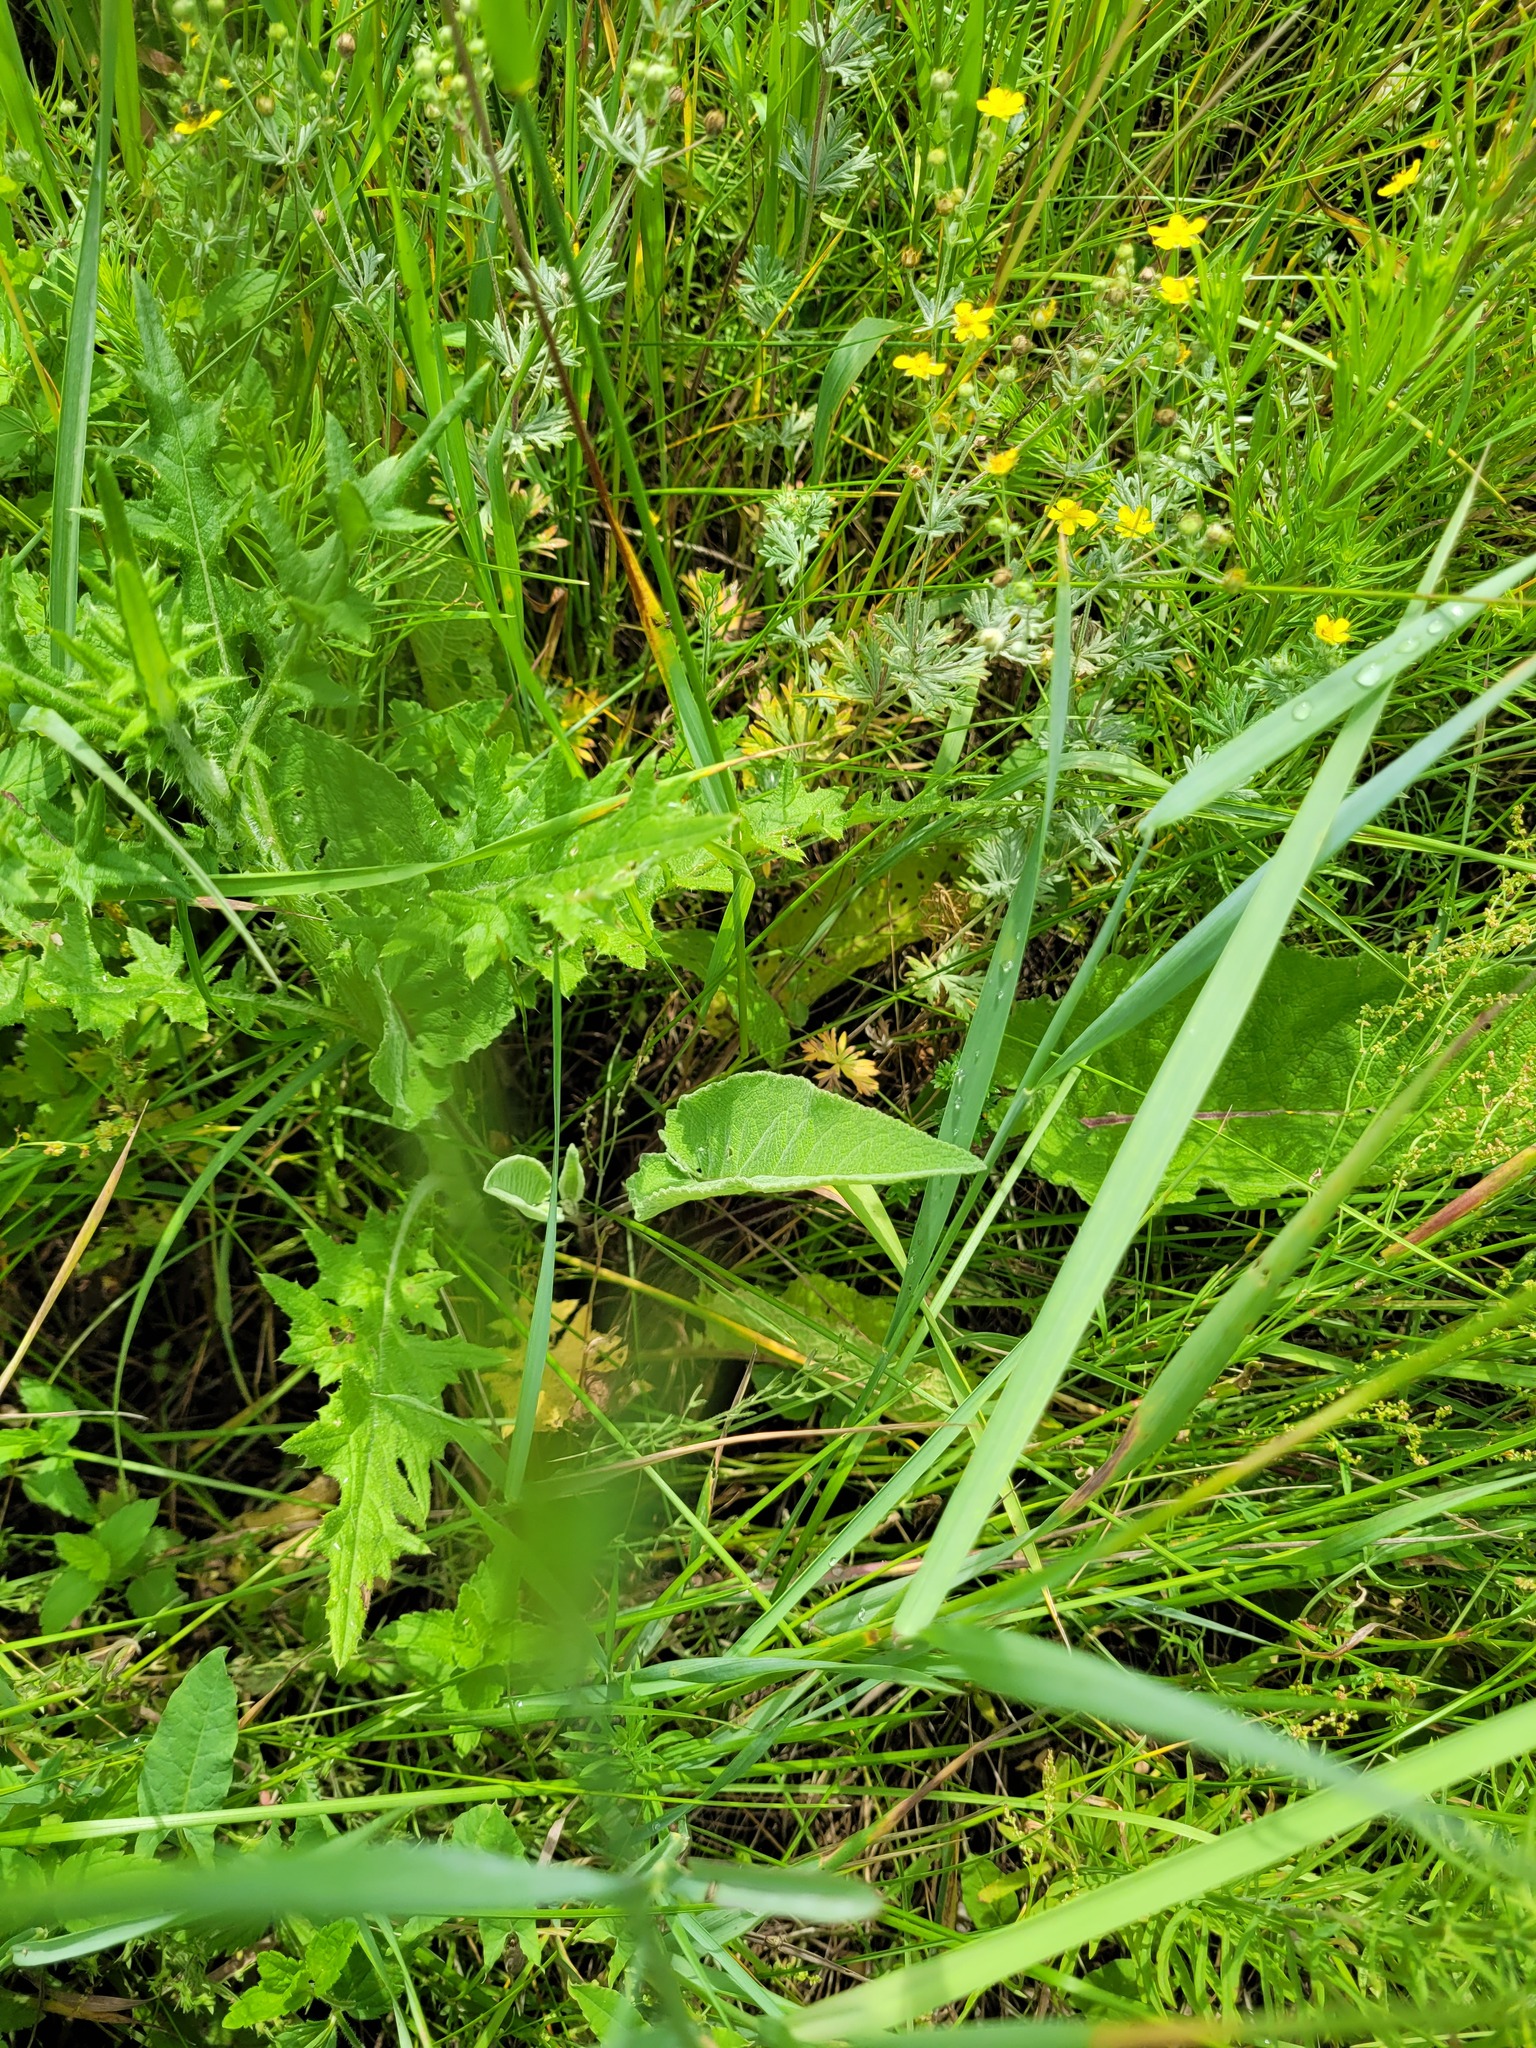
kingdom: Plantae
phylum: Tracheophyta
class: Magnoliopsida
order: Lamiales
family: Scrophulariaceae
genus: Verbascum
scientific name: Verbascum nigrum
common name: Dark mullein
